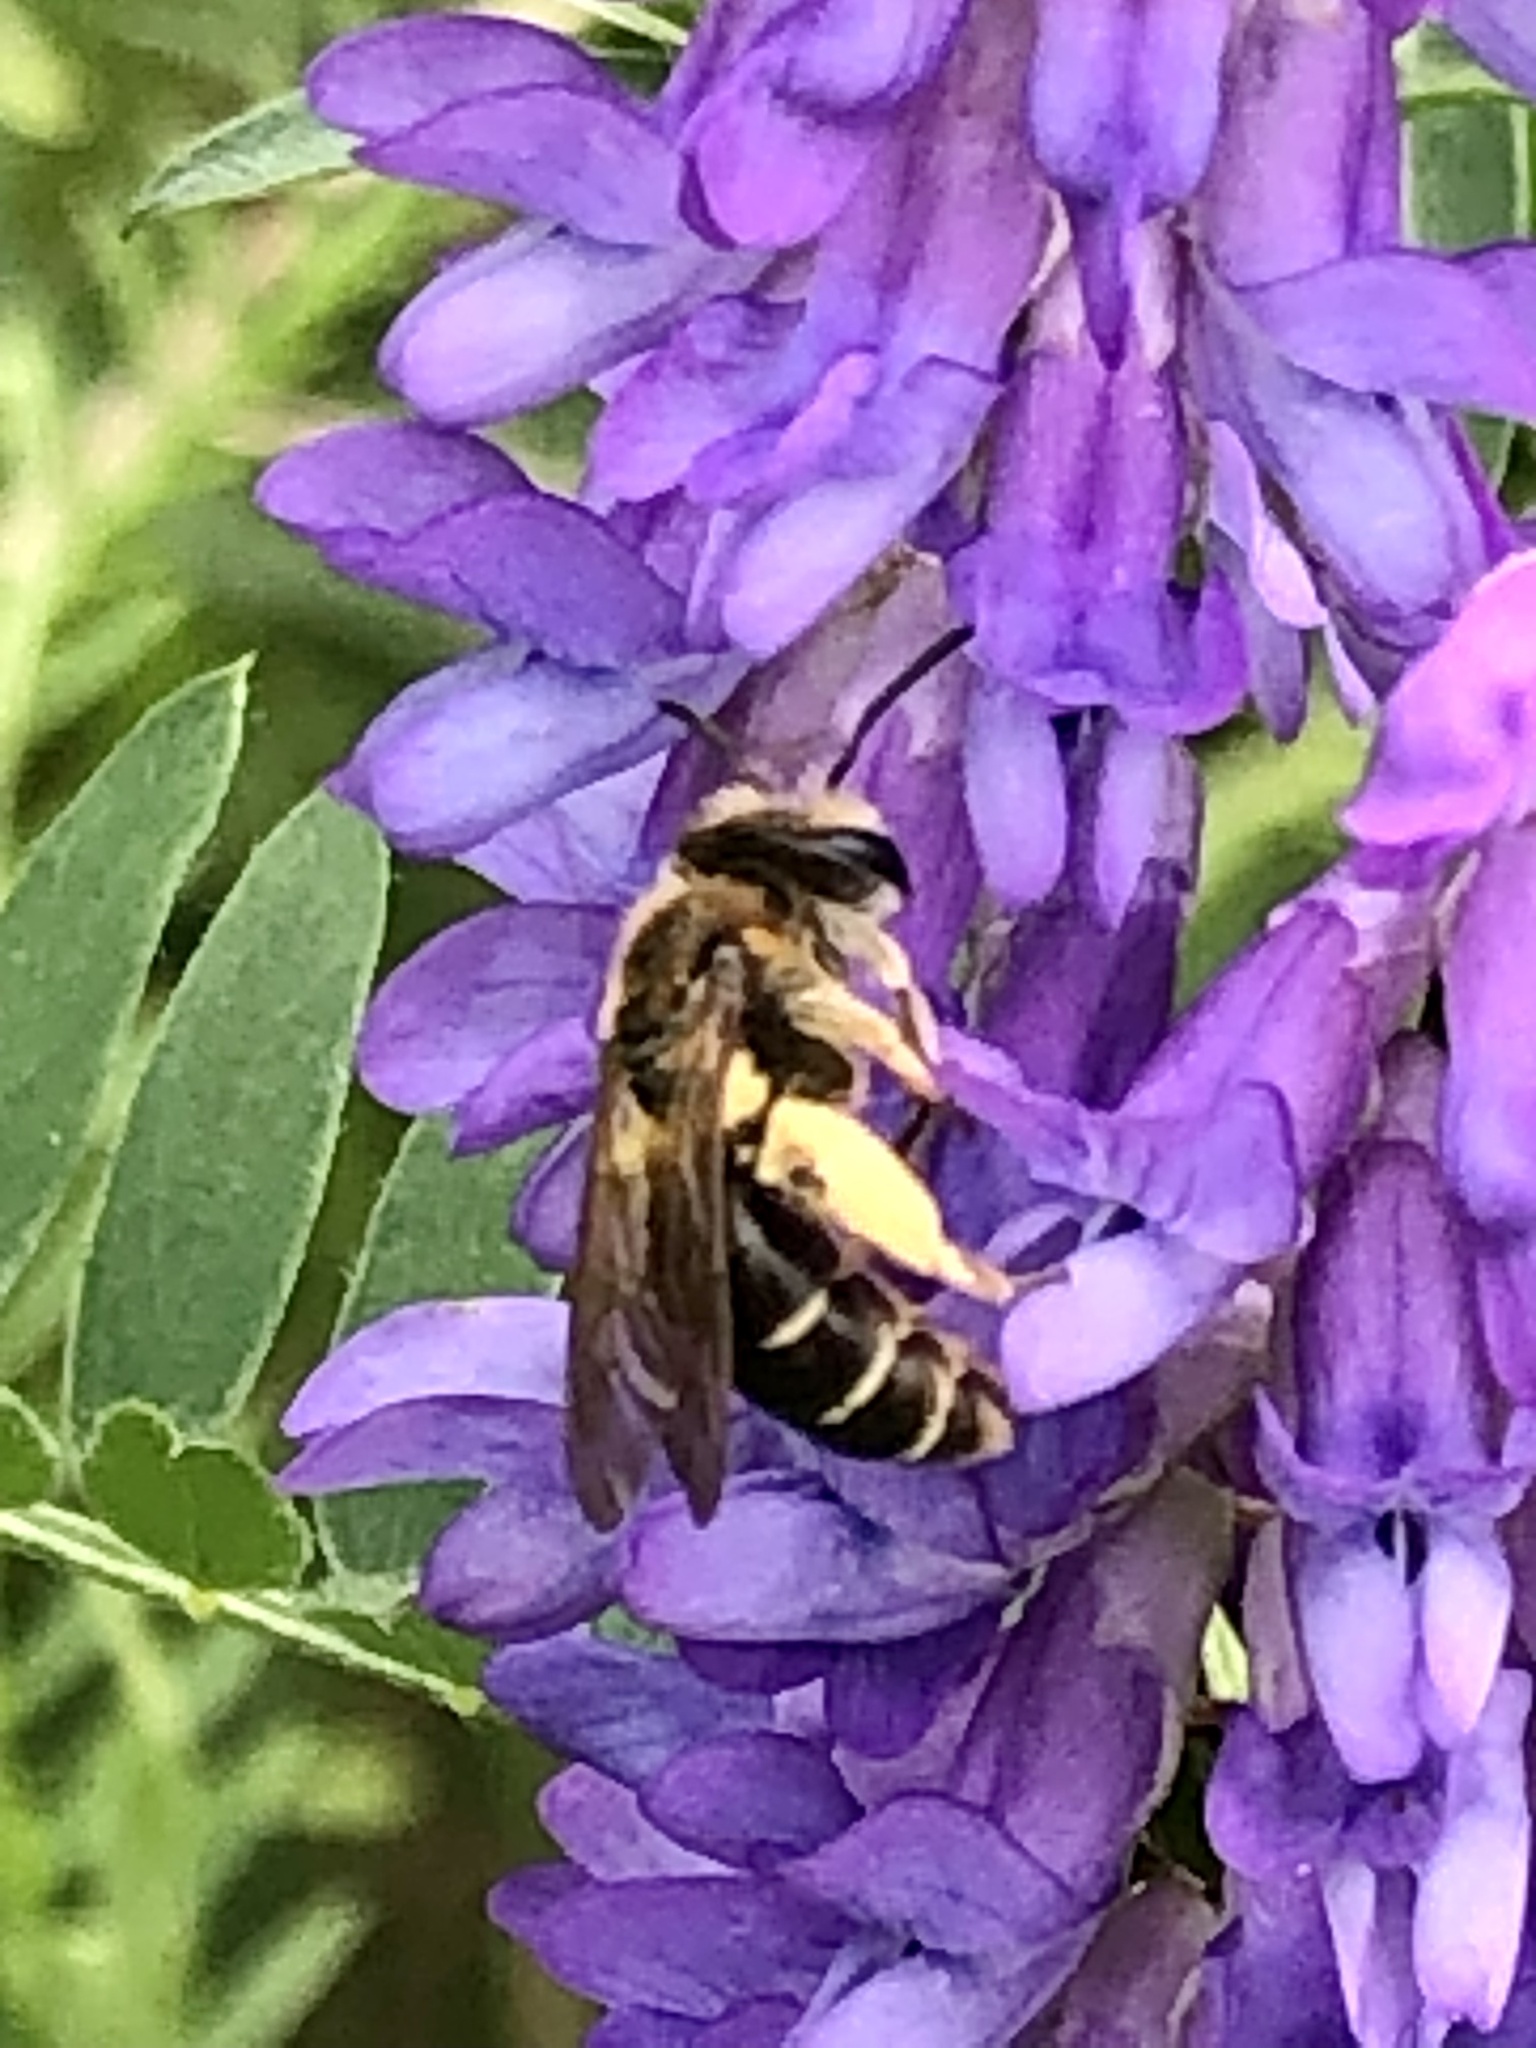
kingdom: Animalia
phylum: Arthropoda
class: Insecta
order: Hymenoptera
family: Andrenidae
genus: Andrena
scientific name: Andrena wilkella
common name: Wilke's mining bee
